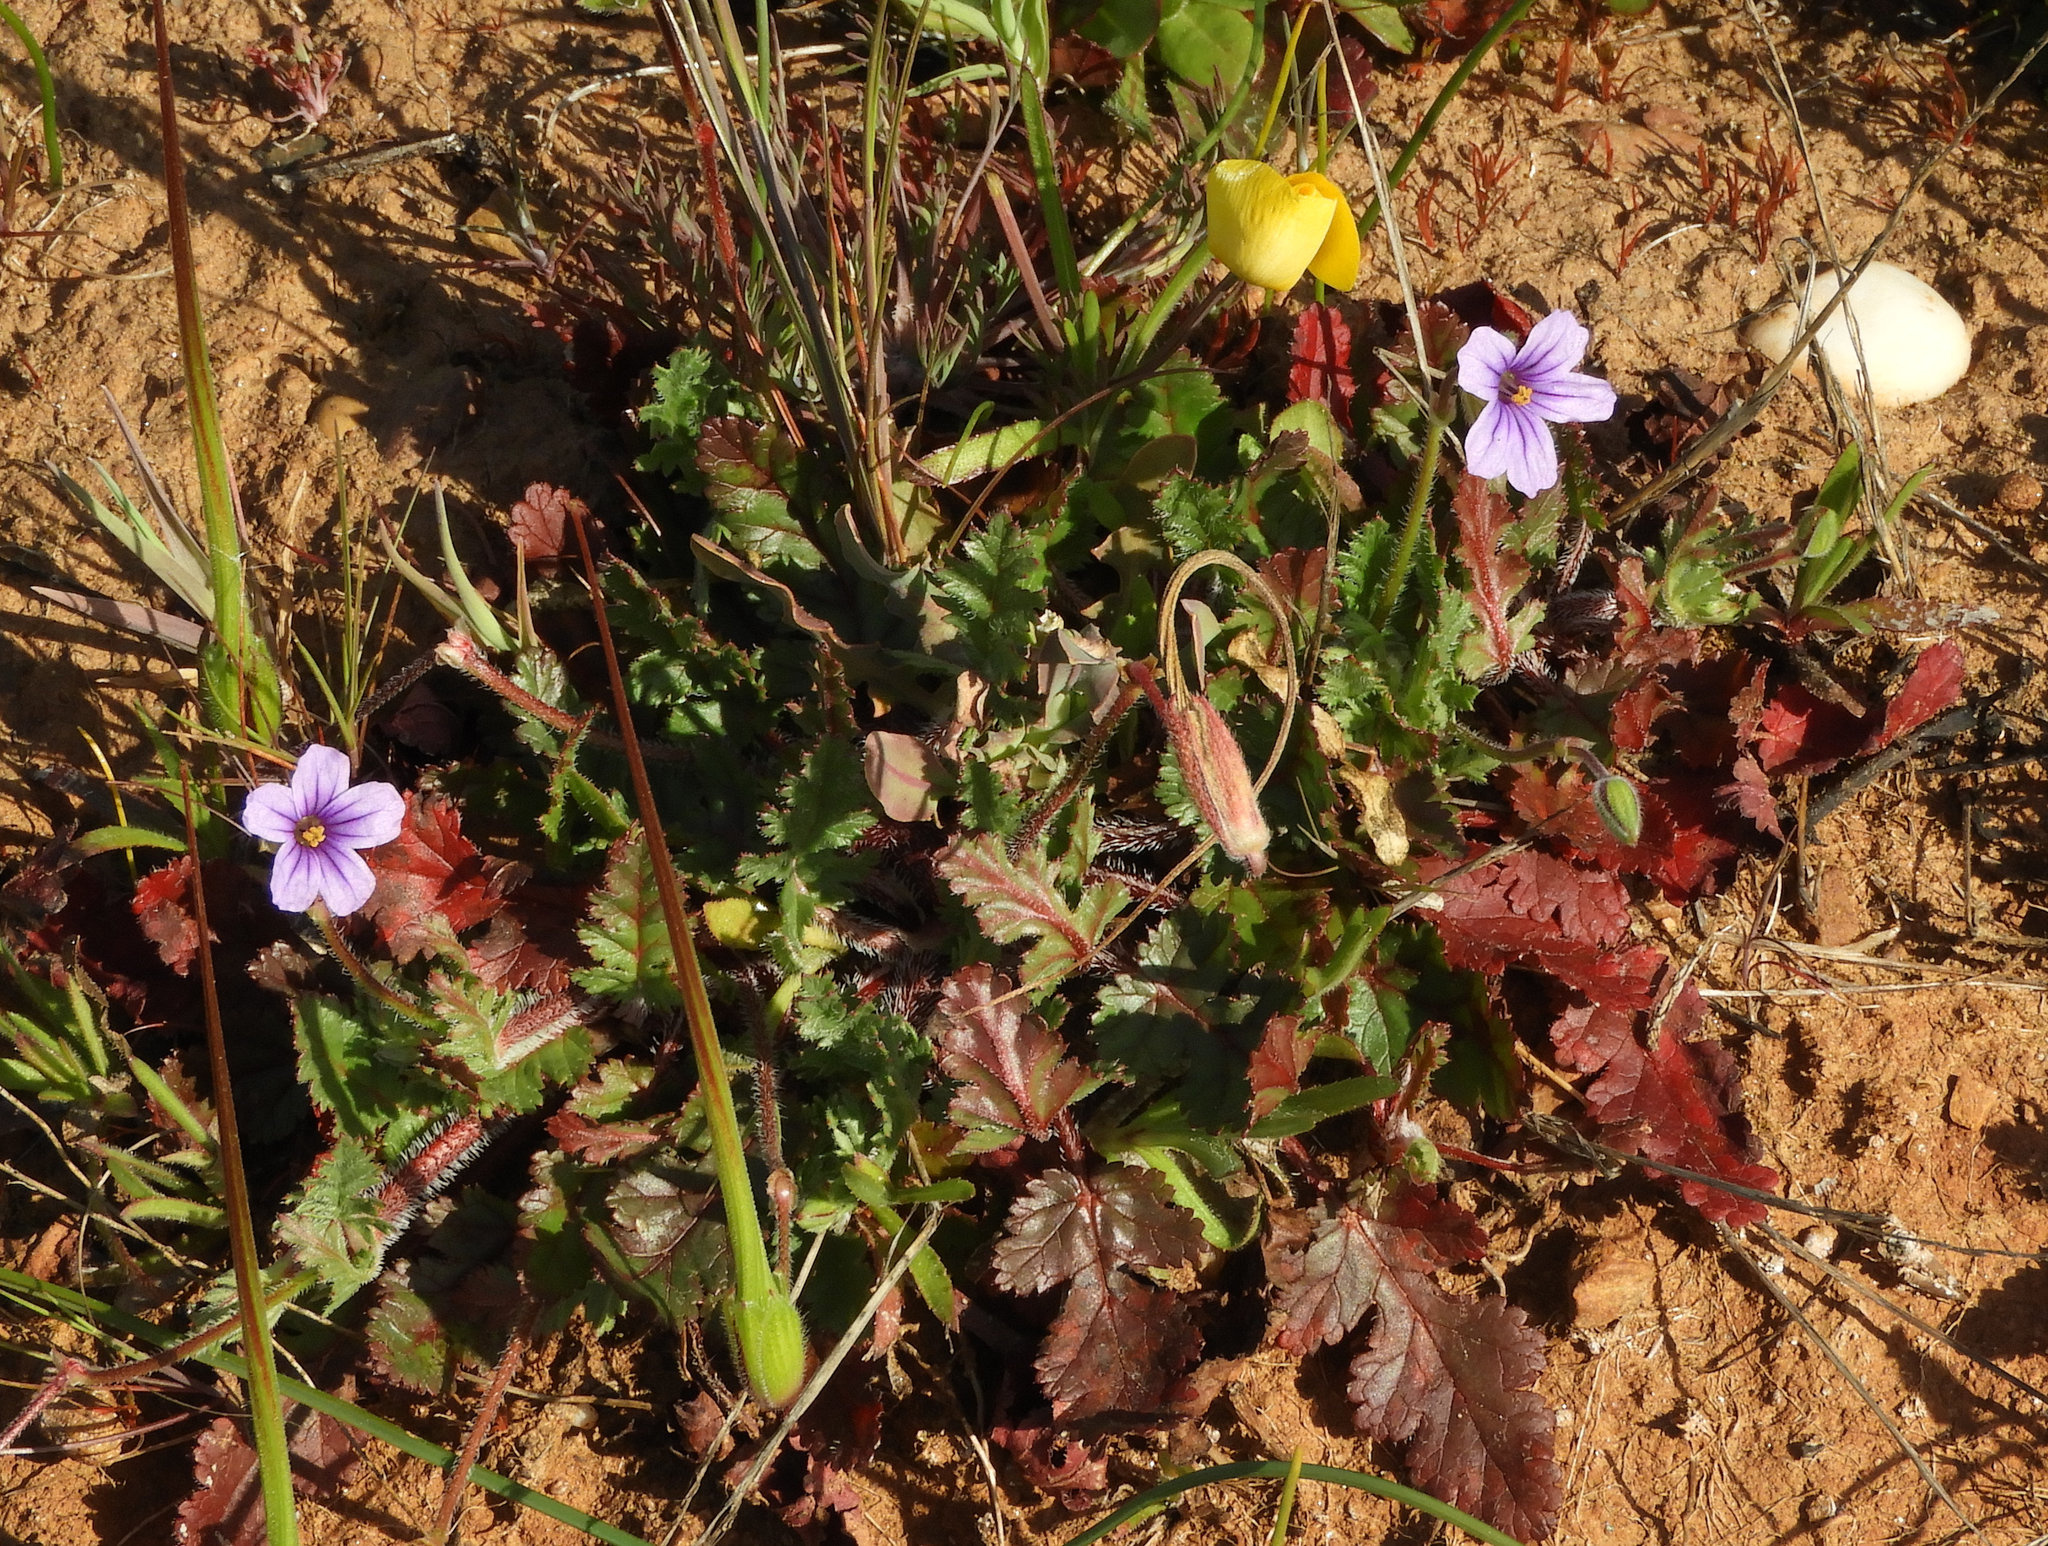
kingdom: Plantae
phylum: Tracheophyta
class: Magnoliopsida
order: Geraniales
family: Geraniaceae
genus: Erodium
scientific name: Erodium botrys
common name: Mediterranean stork's-bill
